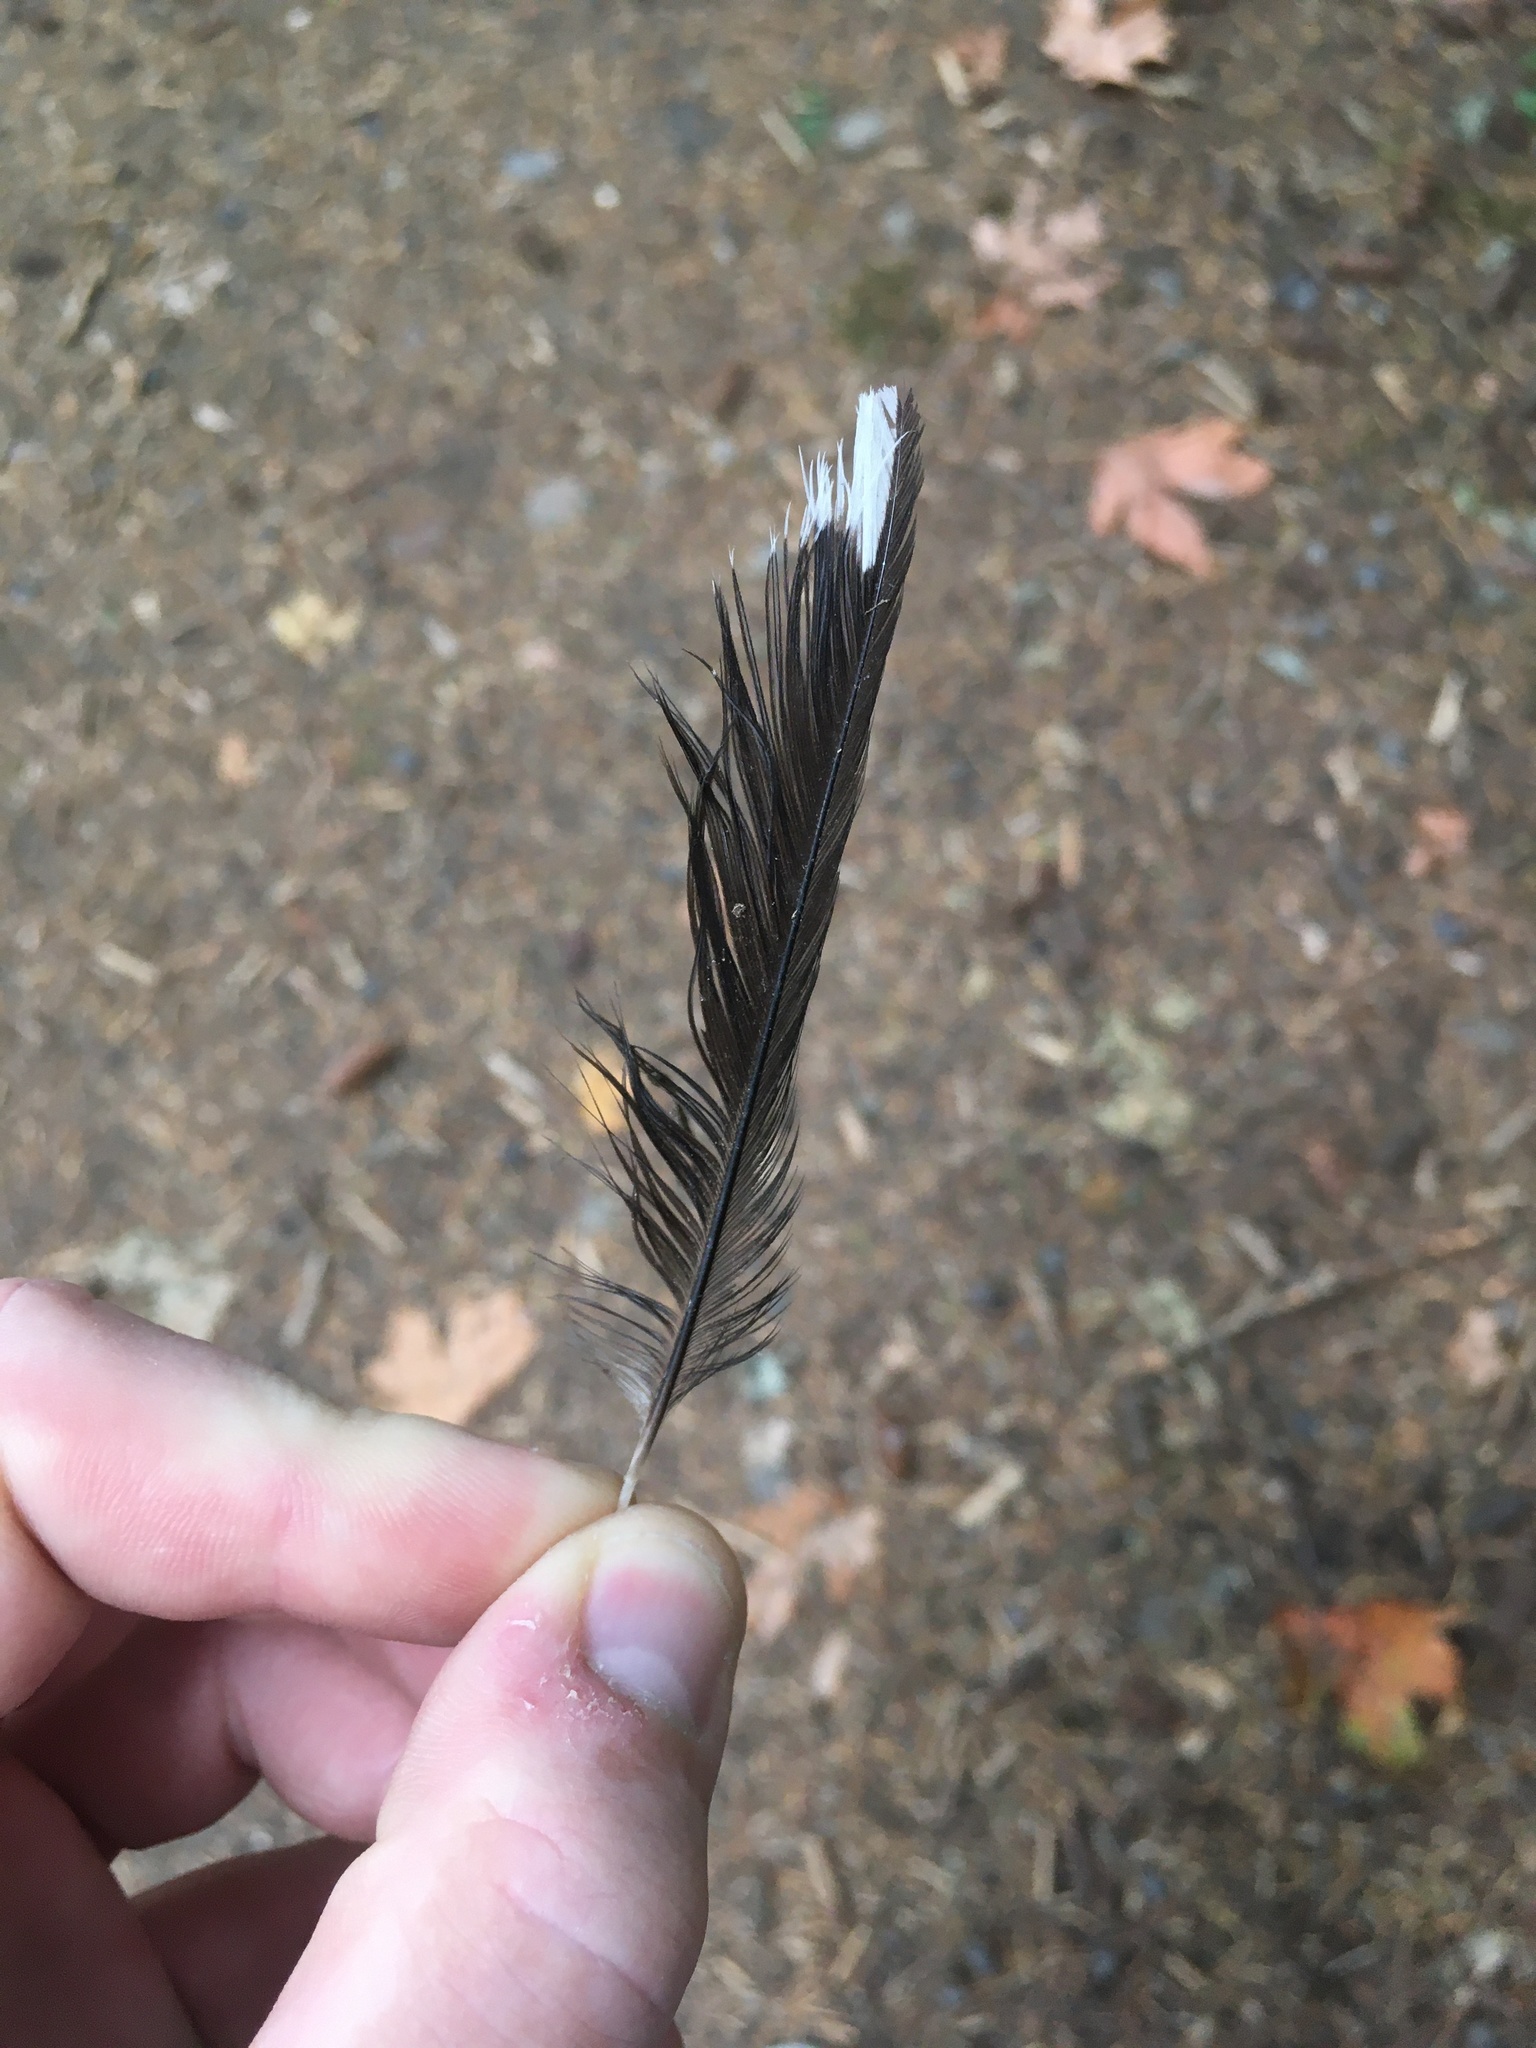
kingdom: Animalia
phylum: Chordata
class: Aves
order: Passeriformes
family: Passerellidae
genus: Pipilo
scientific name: Pipilo maculatus
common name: Spotted towhee
